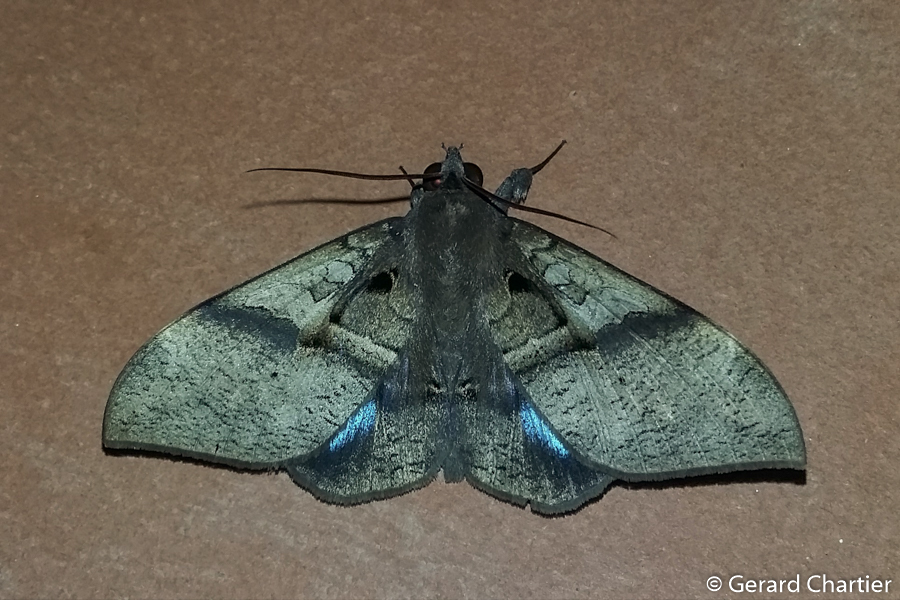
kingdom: Animalia
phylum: Arthropoda
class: Insecta
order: Lepidoptera
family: Erebidae
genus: Ischyja
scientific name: Ischyja inferna
